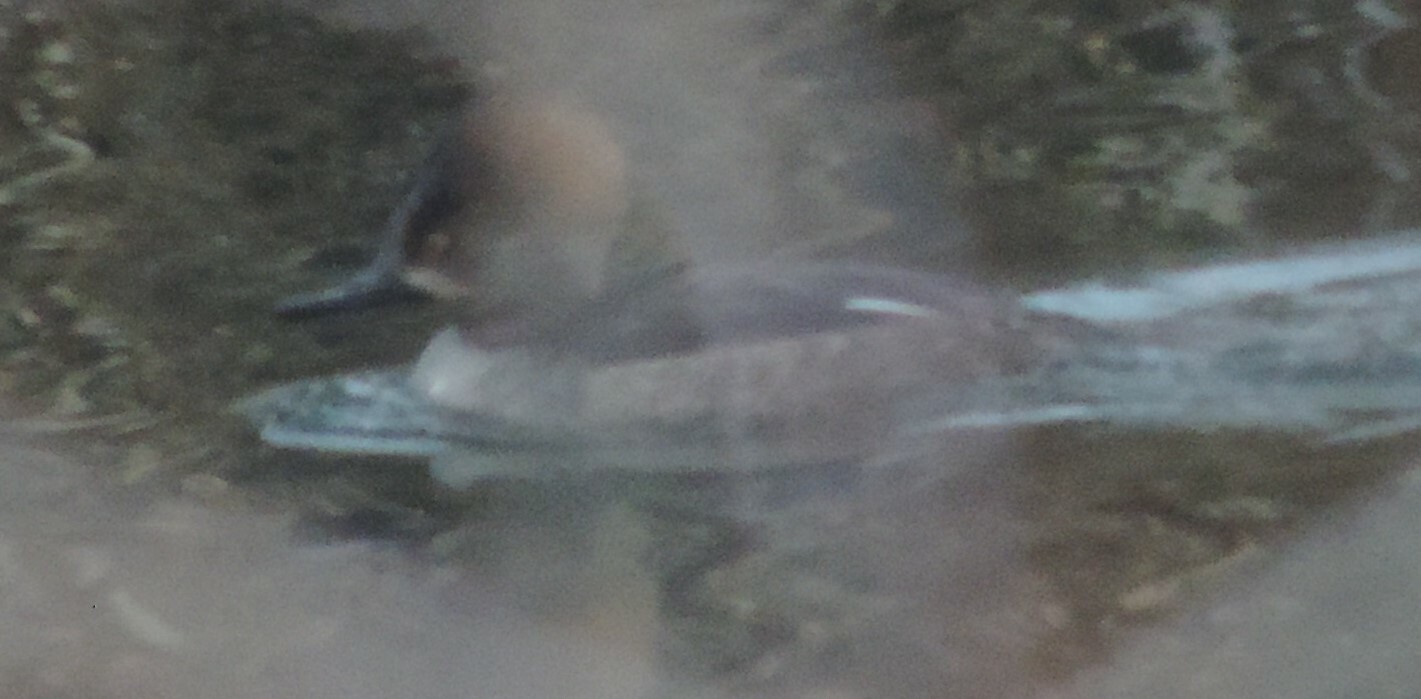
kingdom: Animalia
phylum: Chordata
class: Aves
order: Anseriformes
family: Anatidae
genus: Lophodytes
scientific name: Lophodytes cucullatus
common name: Hooded merganser
